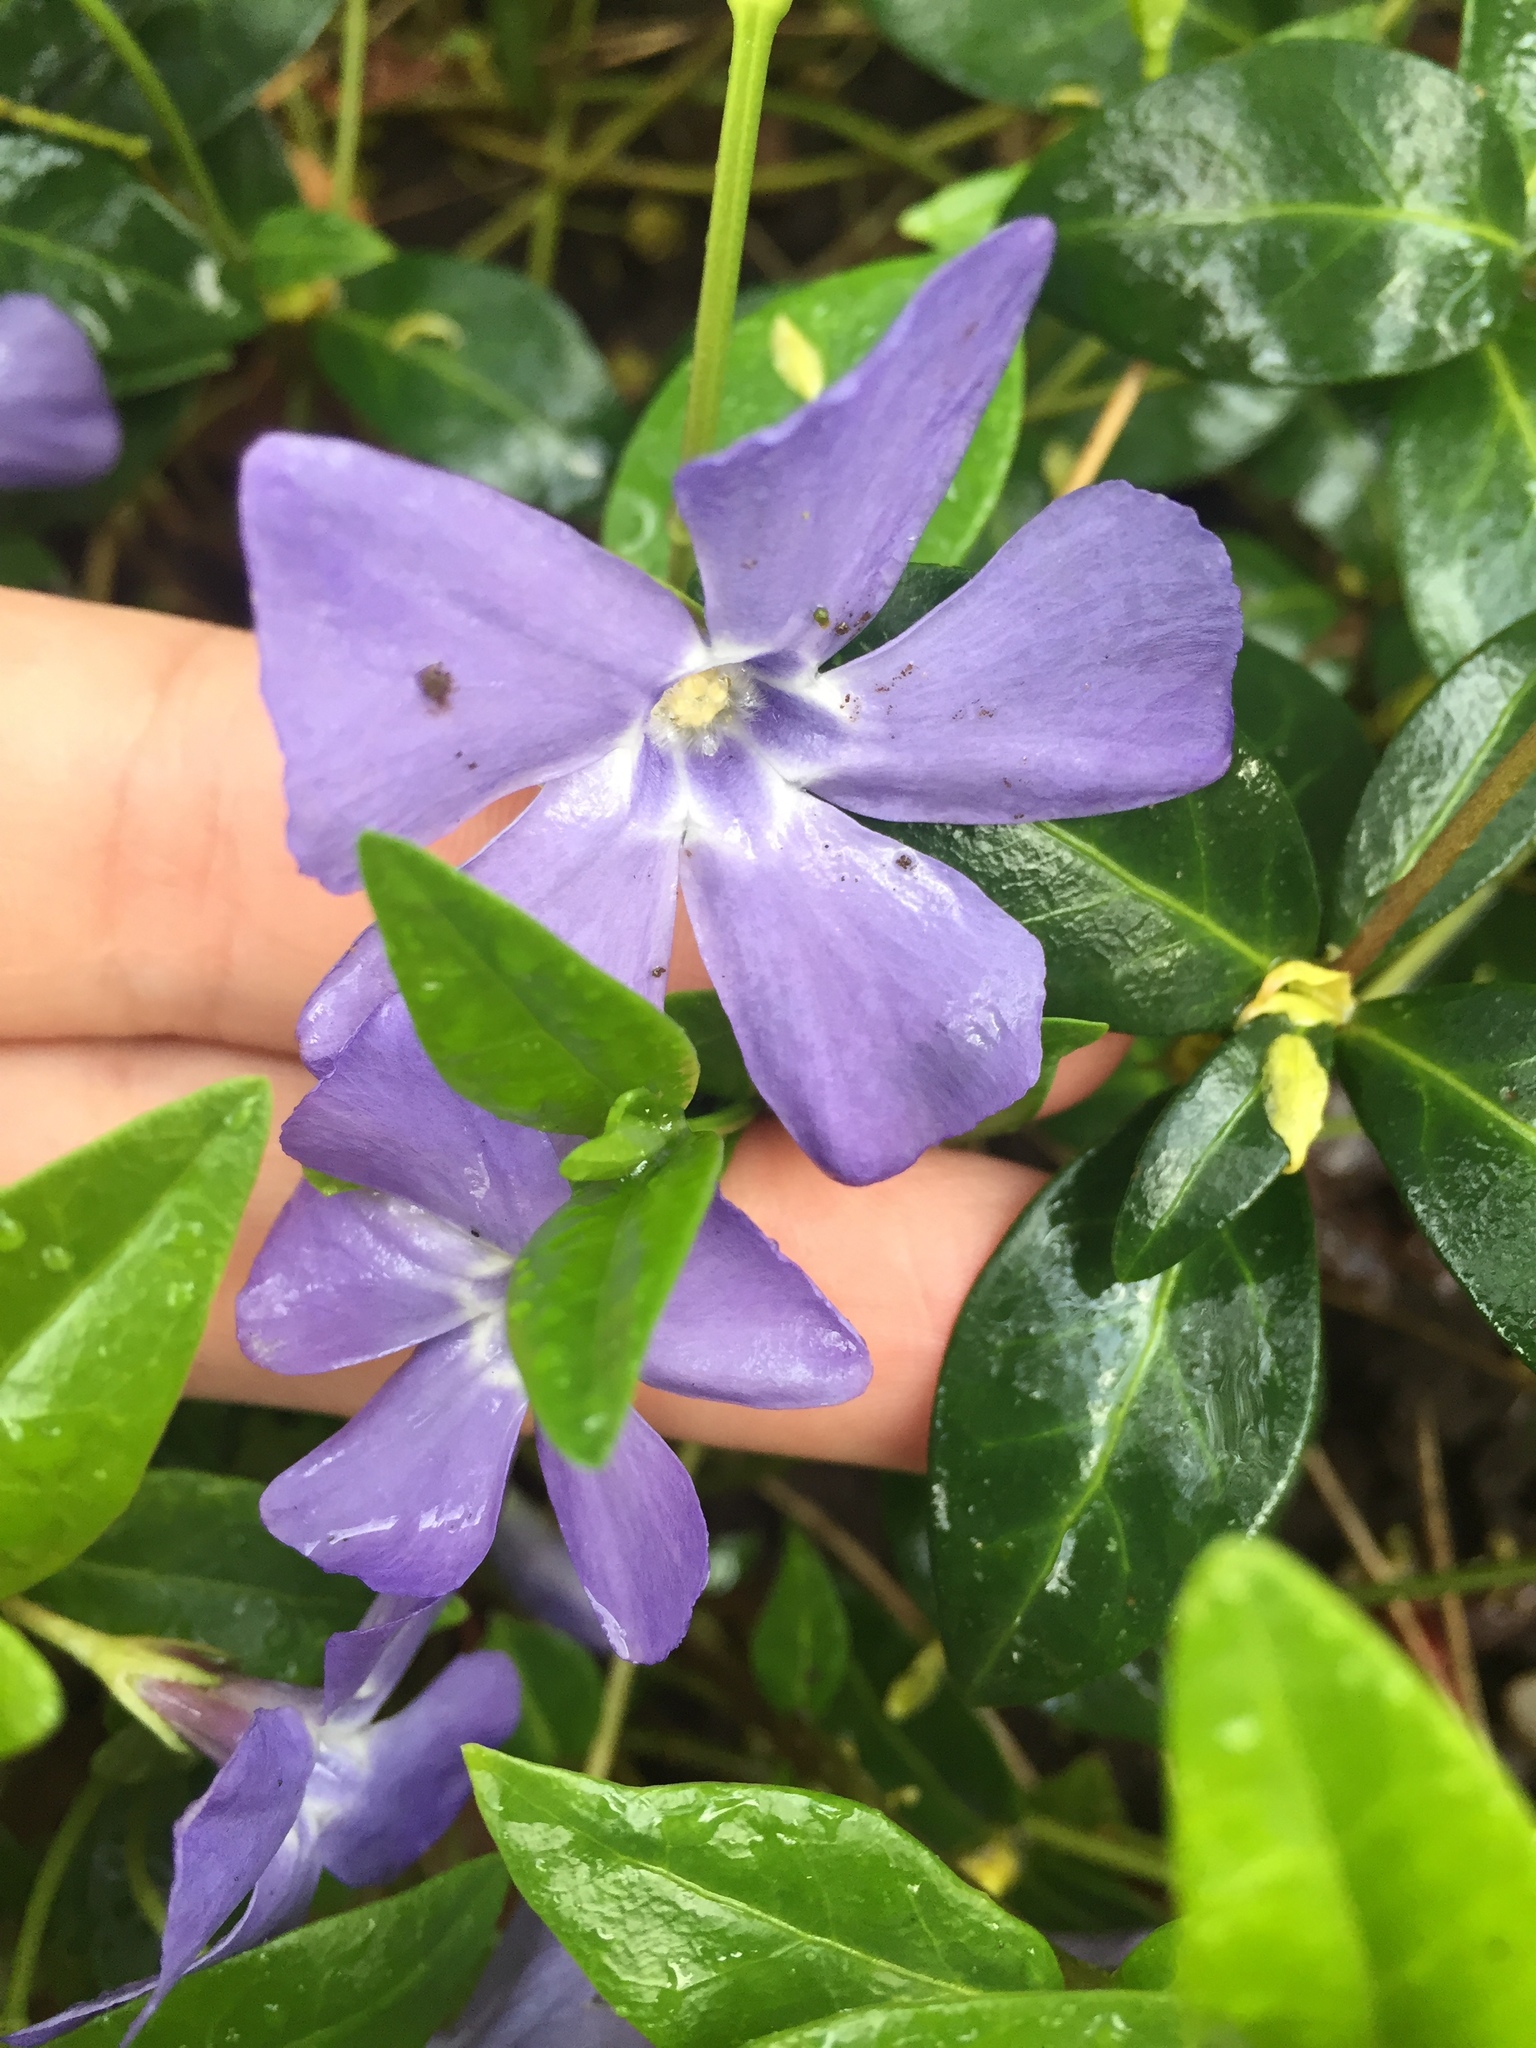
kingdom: Plantae
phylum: Tracheophyta
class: Magnoliopsida
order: Gentianales
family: Apocynaceae
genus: Vinca
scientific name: Vinca major
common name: Greater periwinkle
